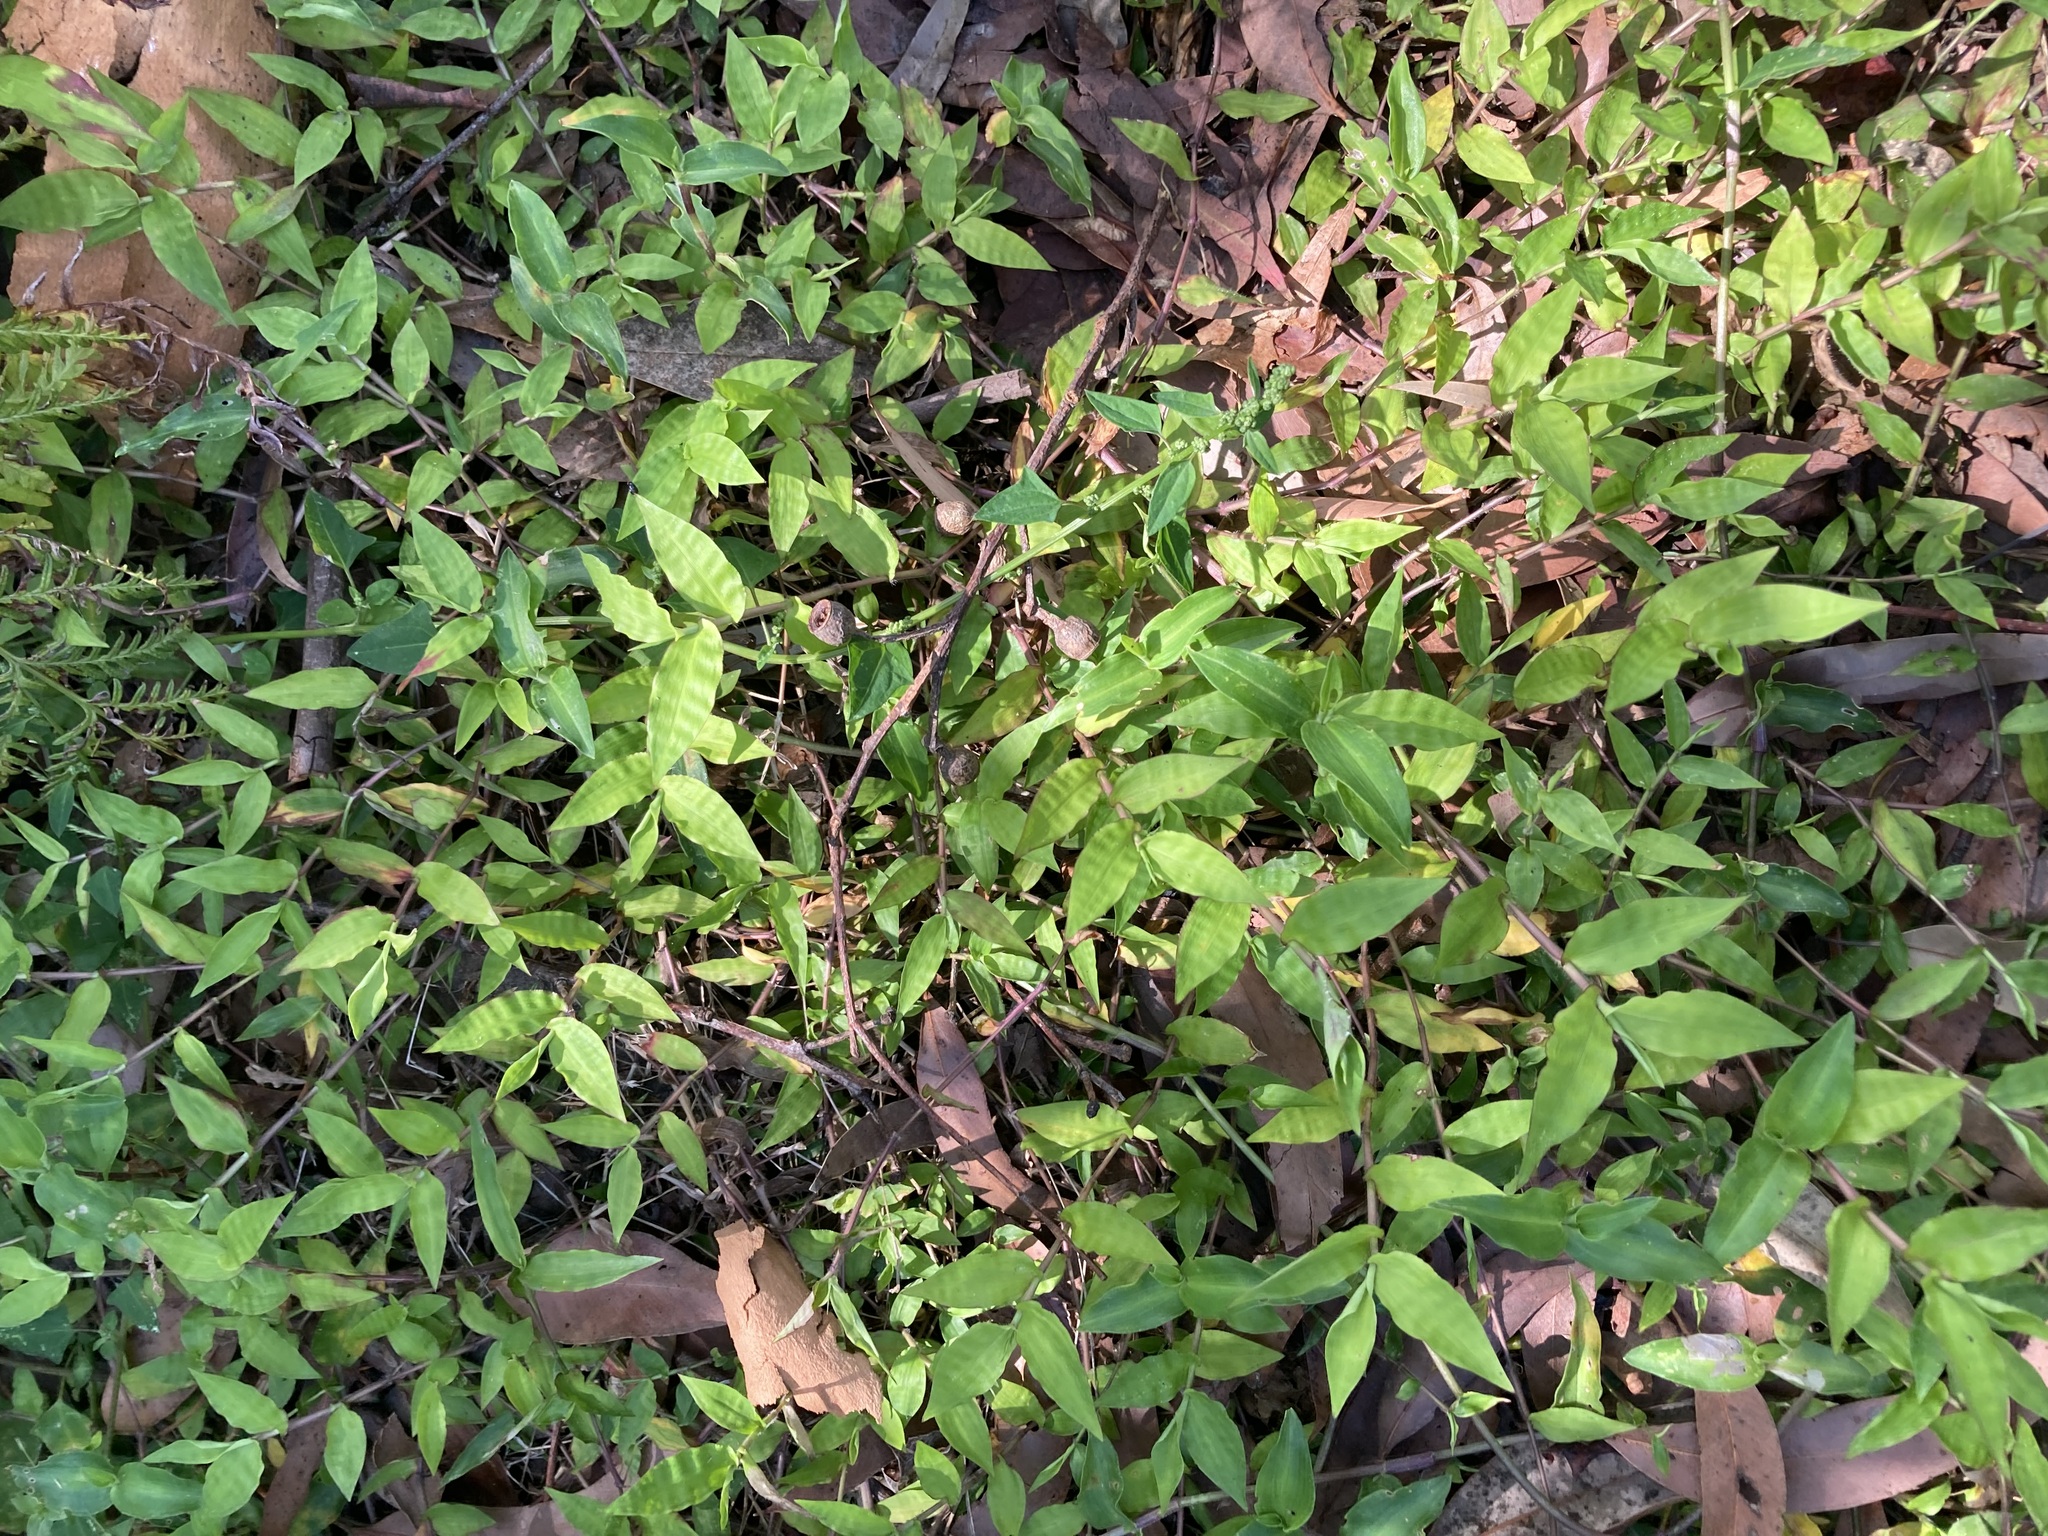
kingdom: Plantae
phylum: Tracheophyta
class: Liliopsida
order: Poales
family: Poaceae
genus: Oplismenus
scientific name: Oplismenus hirtellus
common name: Basketgrass
